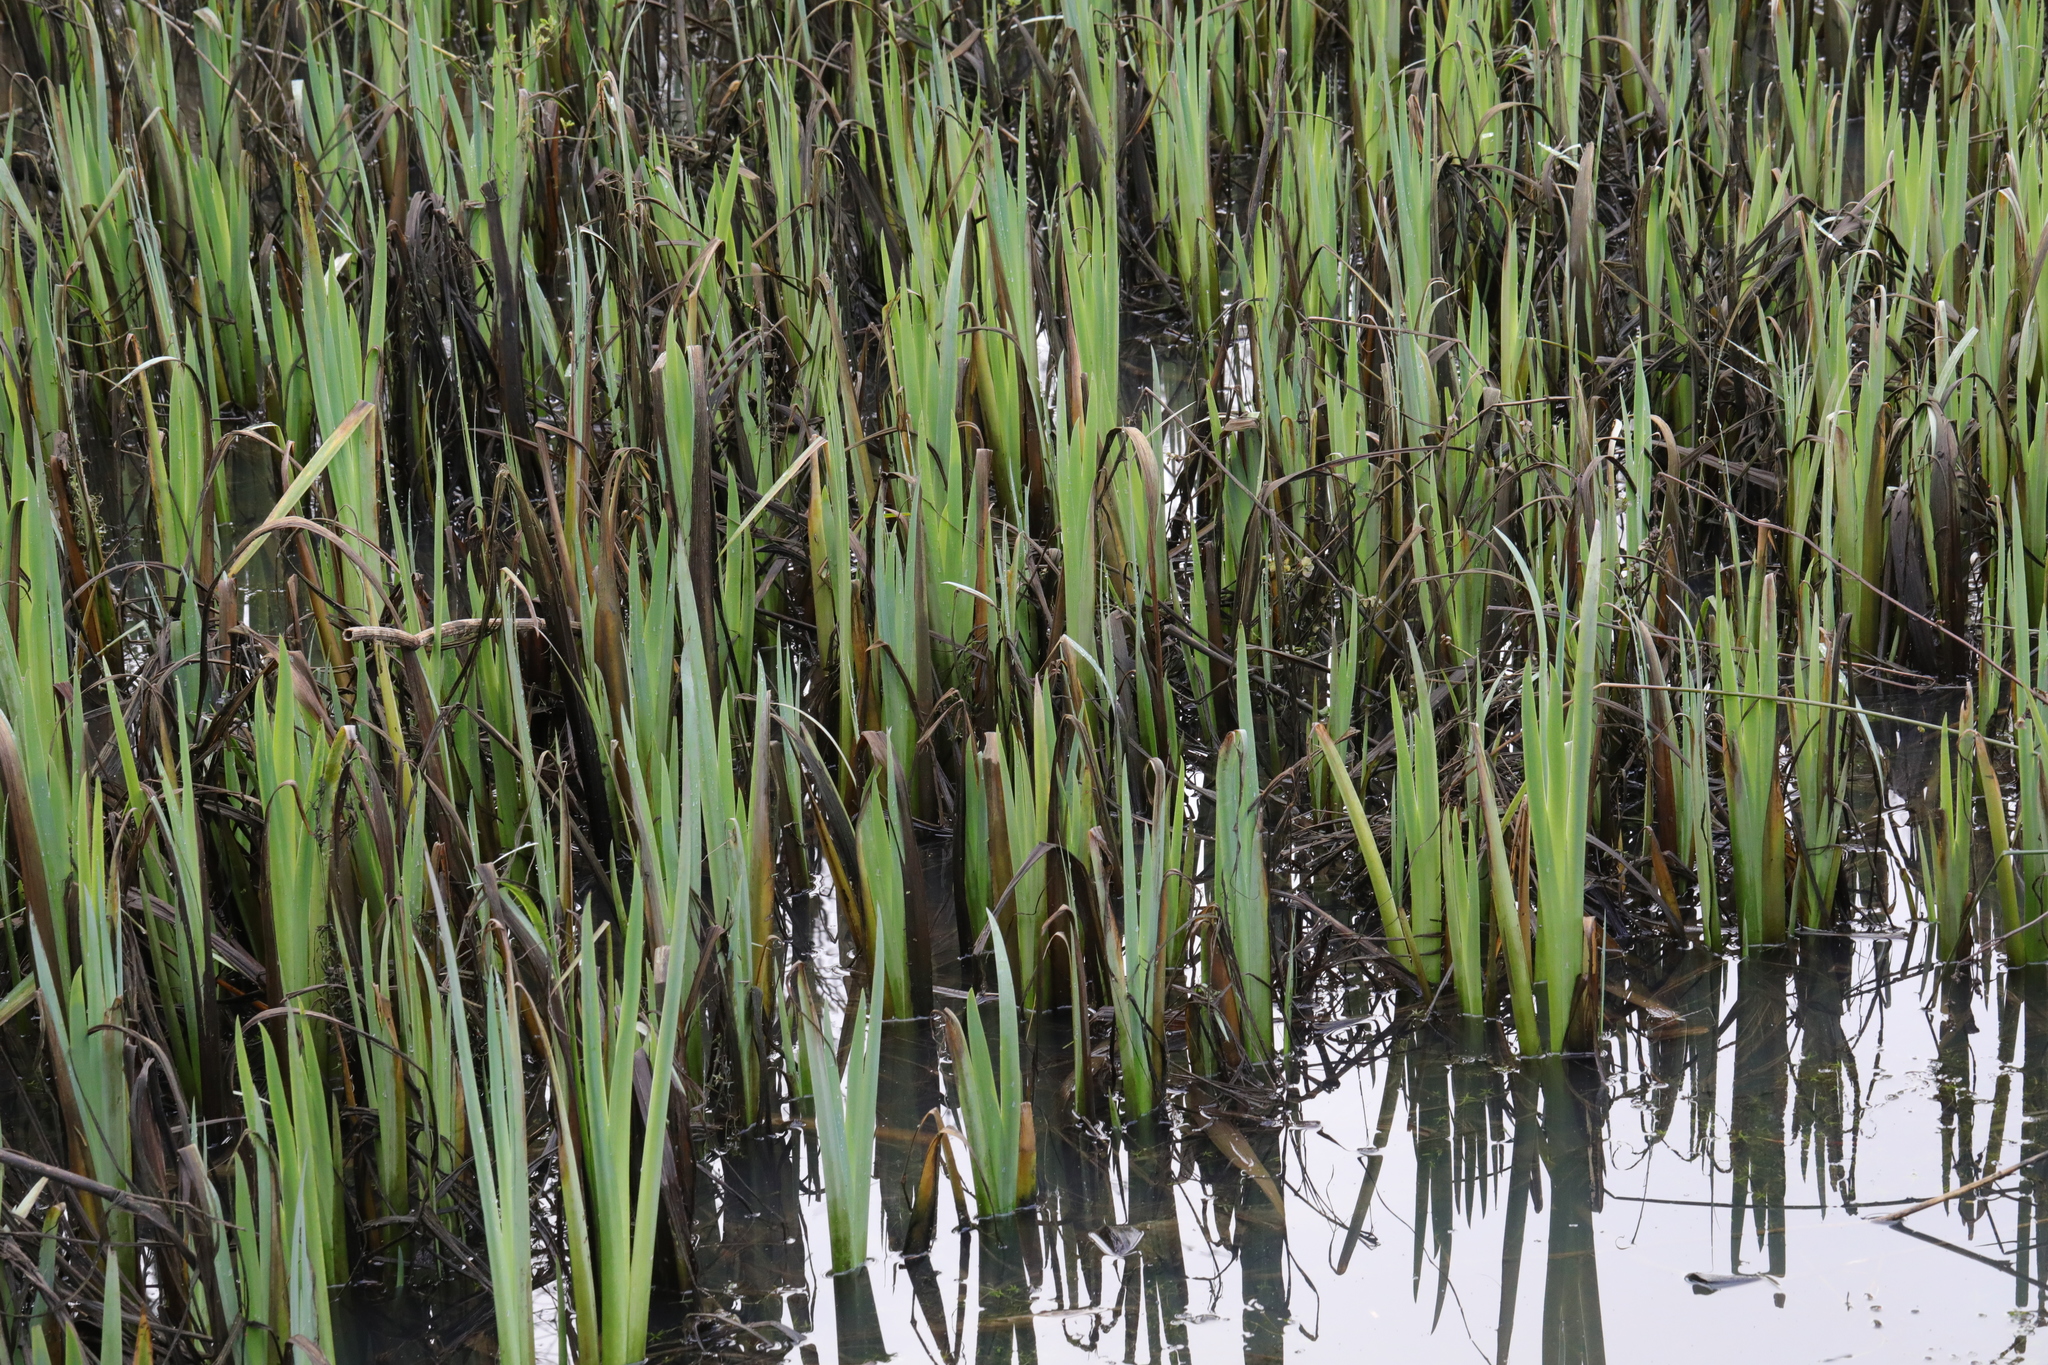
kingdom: Plantae
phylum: Tracheophyta
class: Liliopsida
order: Asparagales
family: Iridaceae
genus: Iris
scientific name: Iris pseudacorus
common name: Yellow flag
